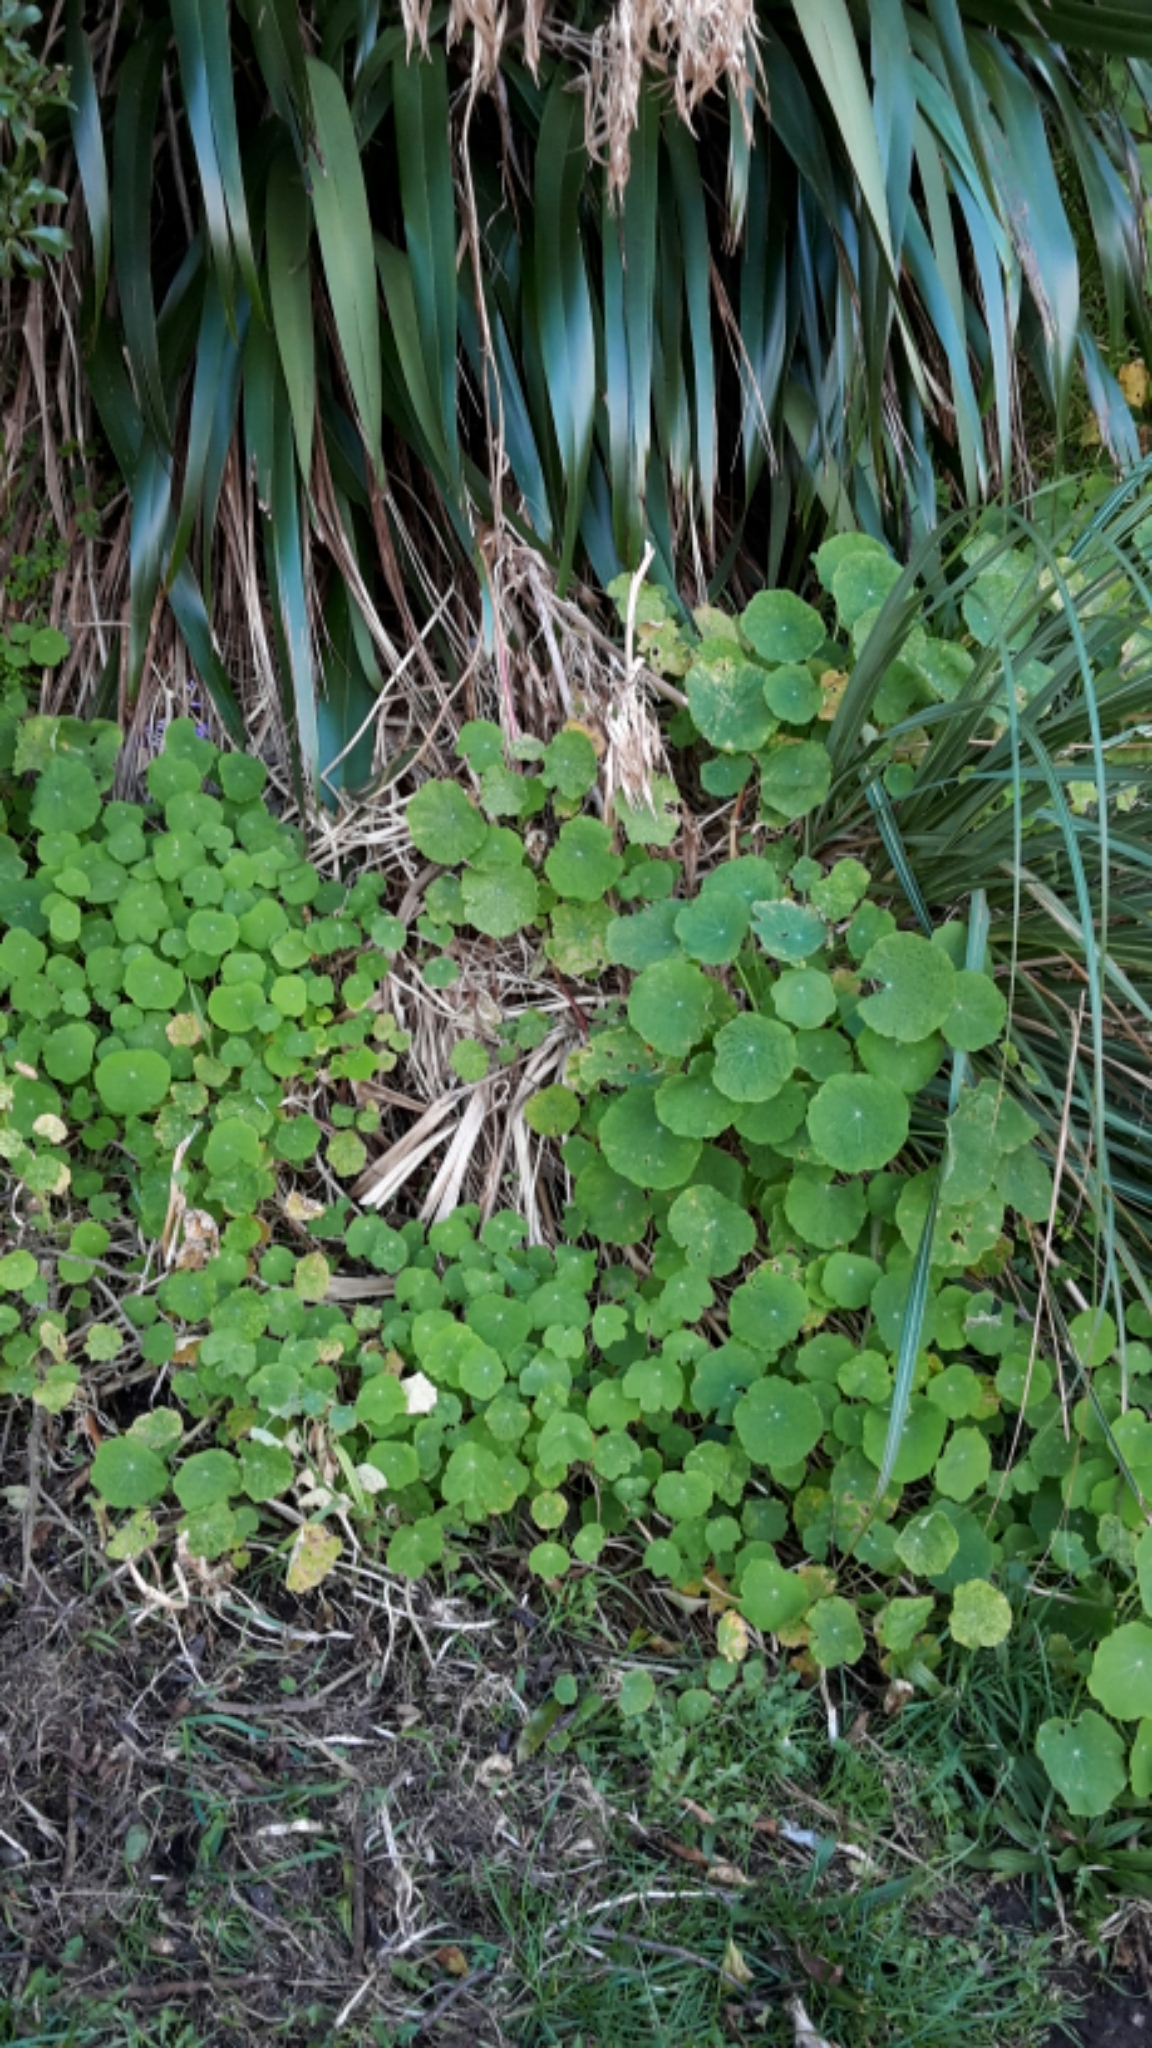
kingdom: Plantae
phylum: Tracheophyta
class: Magnoliopsida
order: Brassicales
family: Tropaeolaceae
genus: Tropaeolum
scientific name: Tropaeolum majus
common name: Nasturtium
